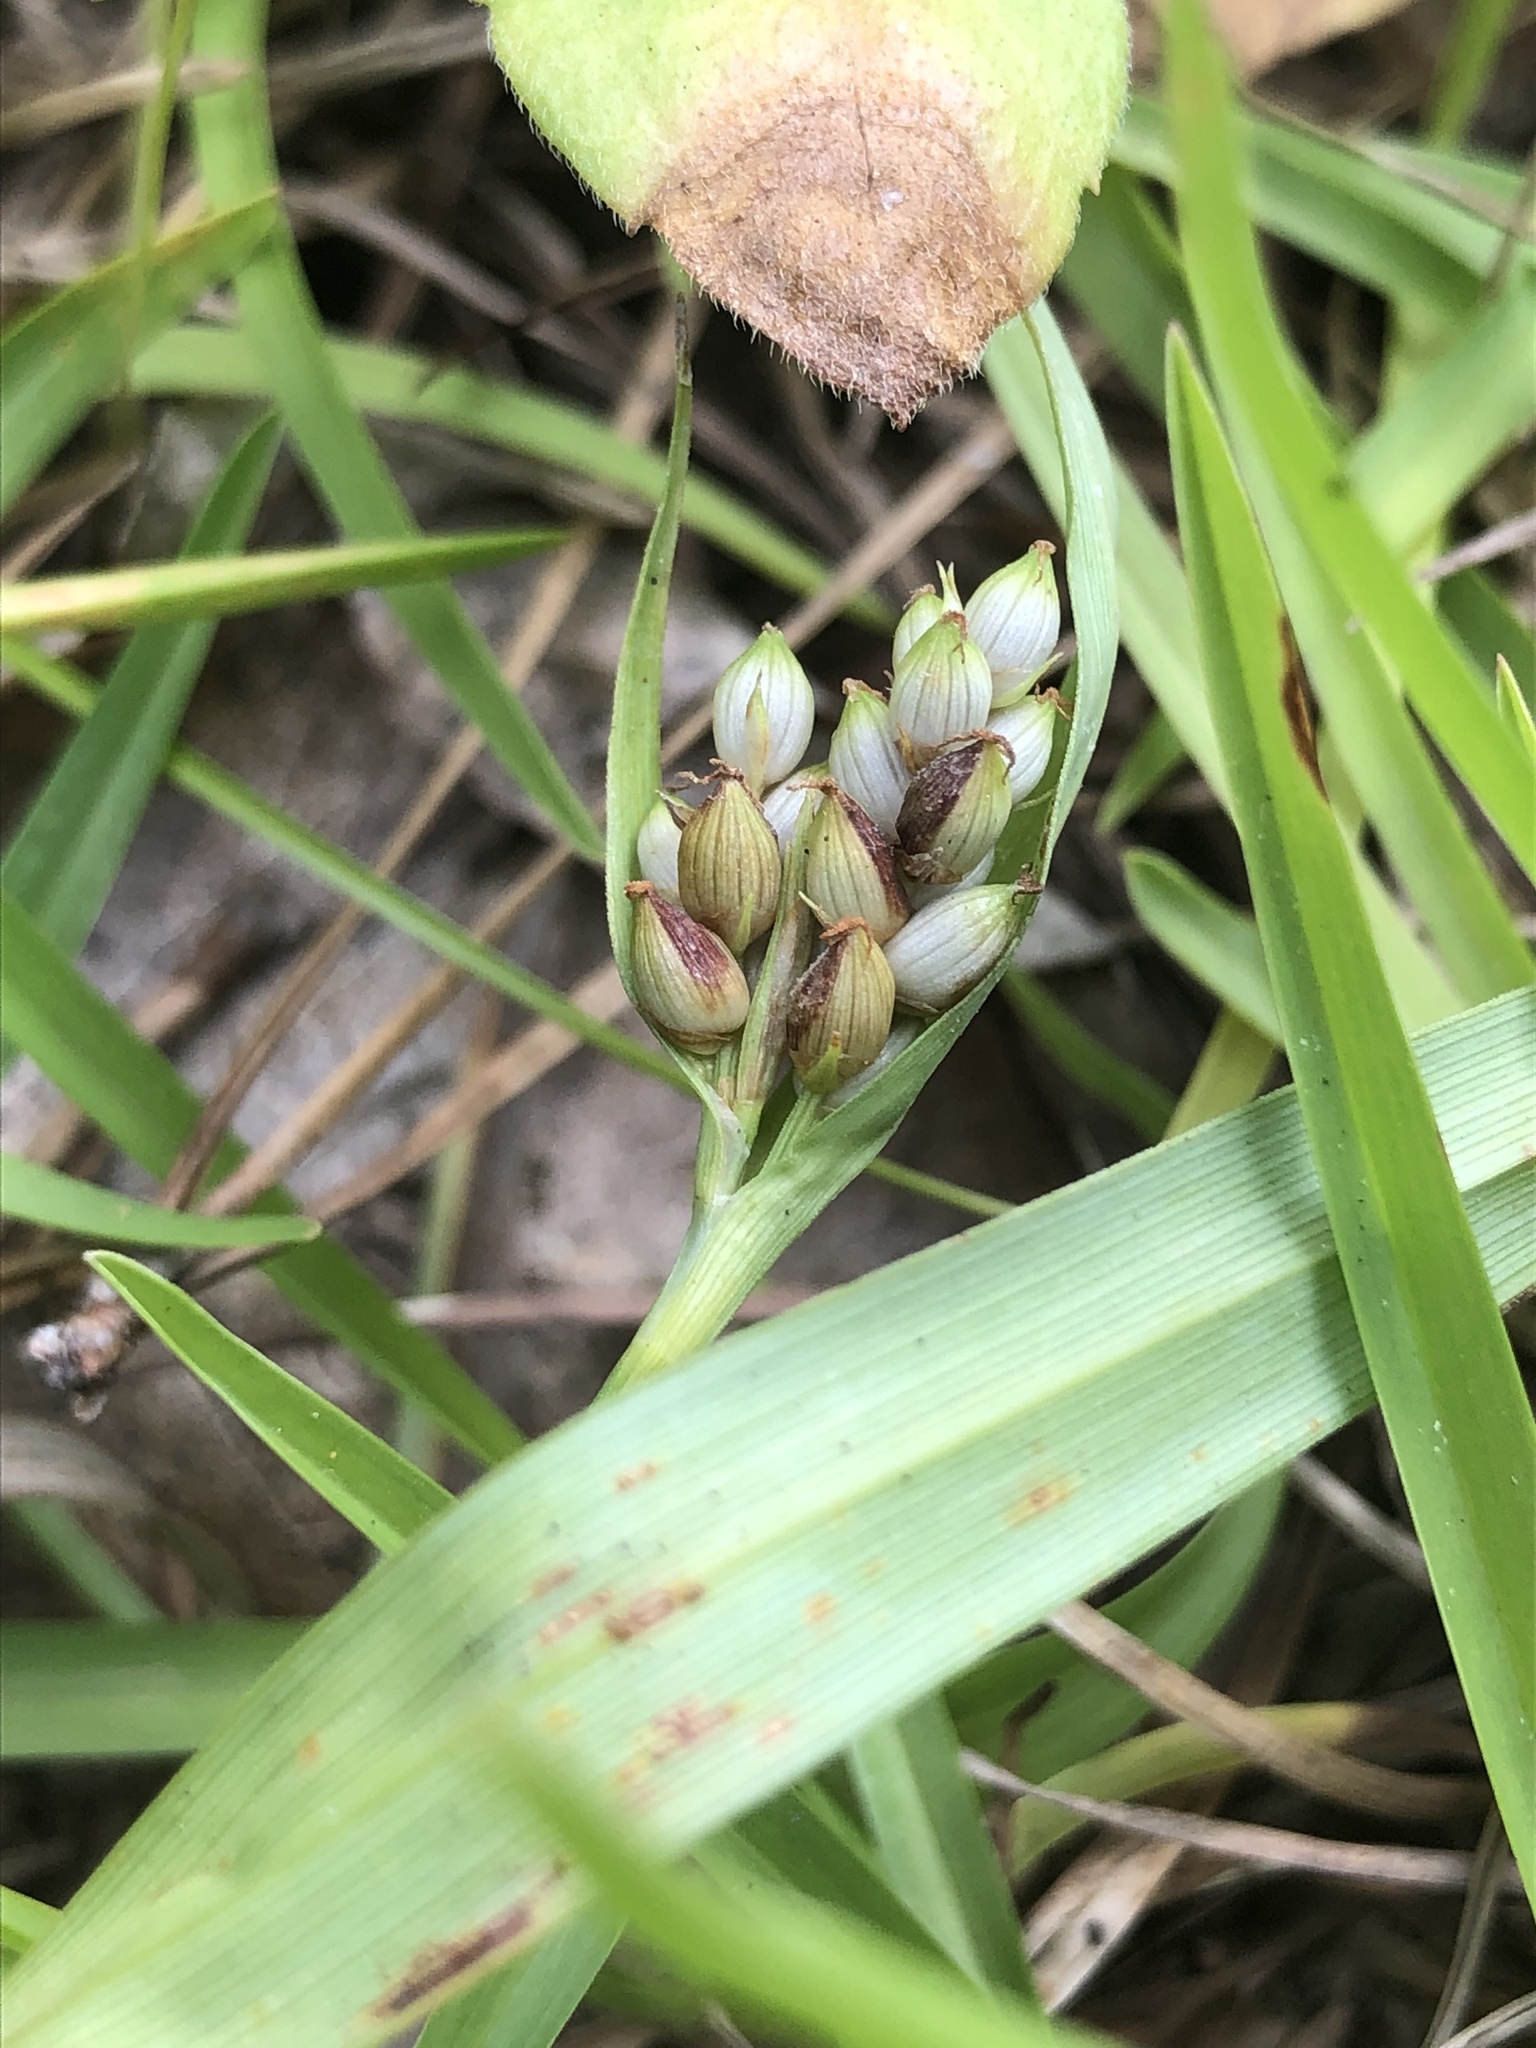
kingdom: Plantae
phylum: Tracheophyta
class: Liliopsida
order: Poales
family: Cyperaceae
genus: Carex
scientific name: Carex glaucodea
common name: Blue sedge
